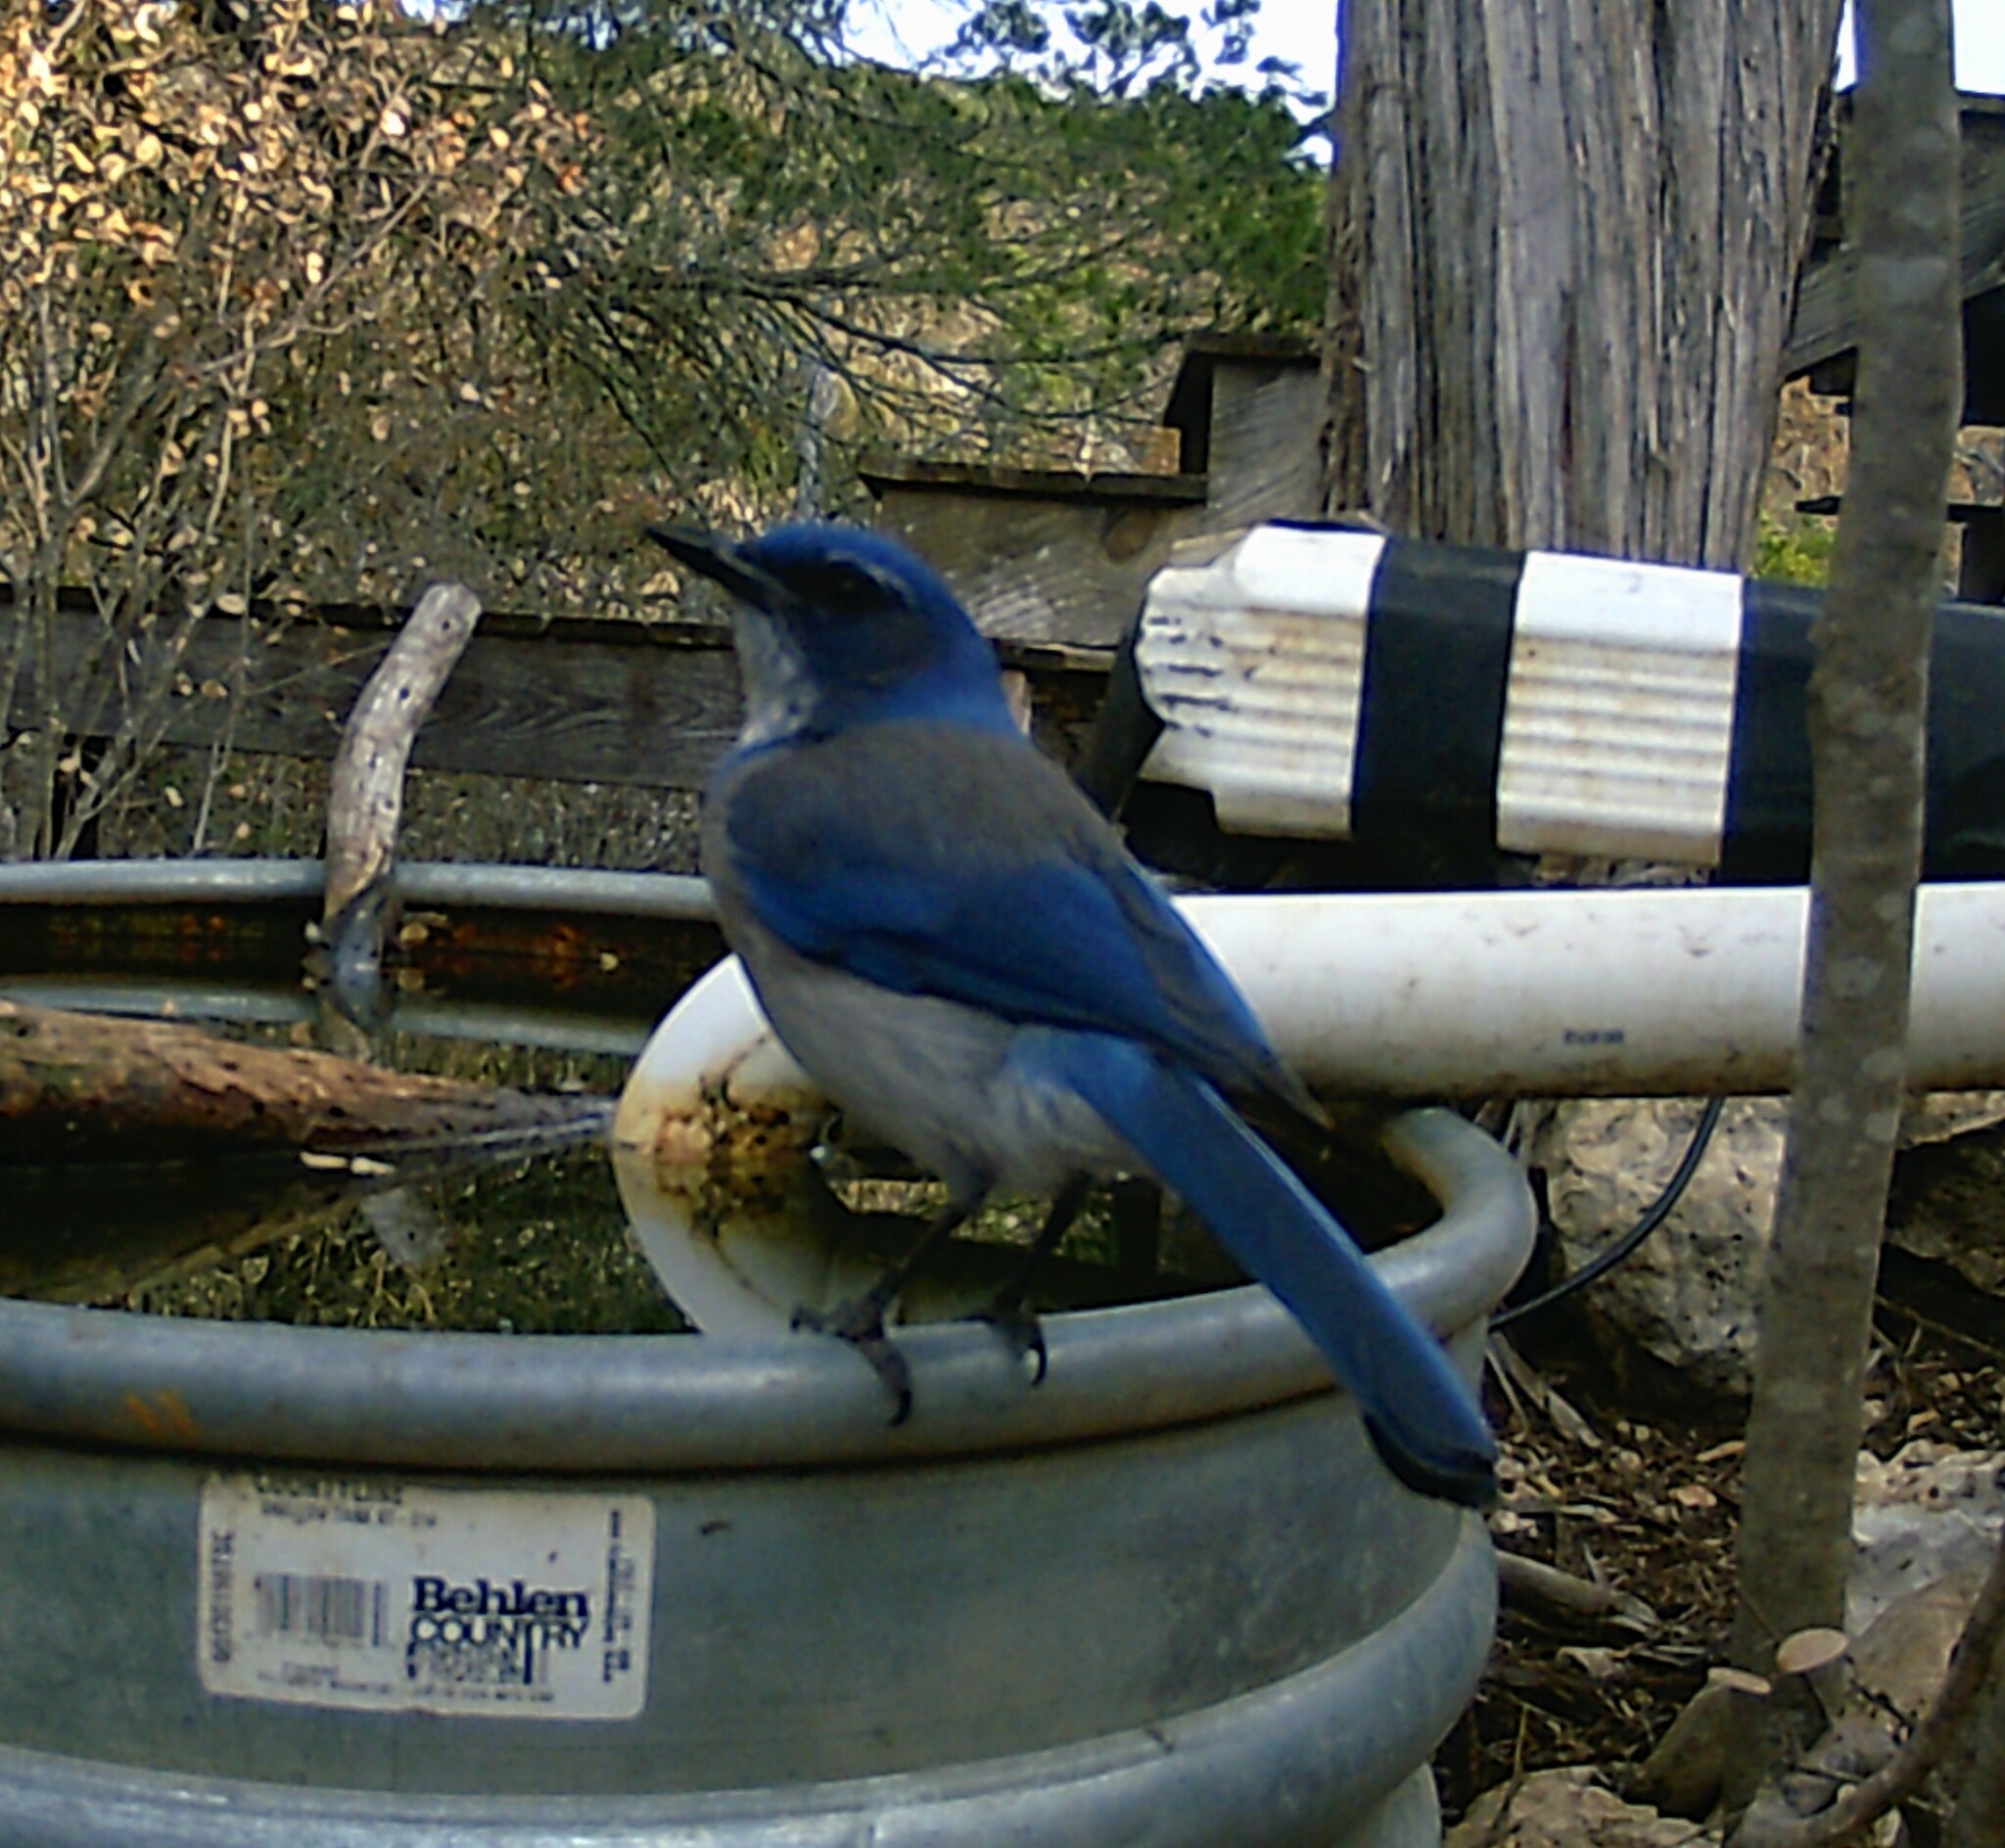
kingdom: Animalia
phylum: Chordata
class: Aves
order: Passeriformes
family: Corvidae
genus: Aphelocoma
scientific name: Aphelocoma woodhouseii
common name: Woodhouse's scrub-jay
